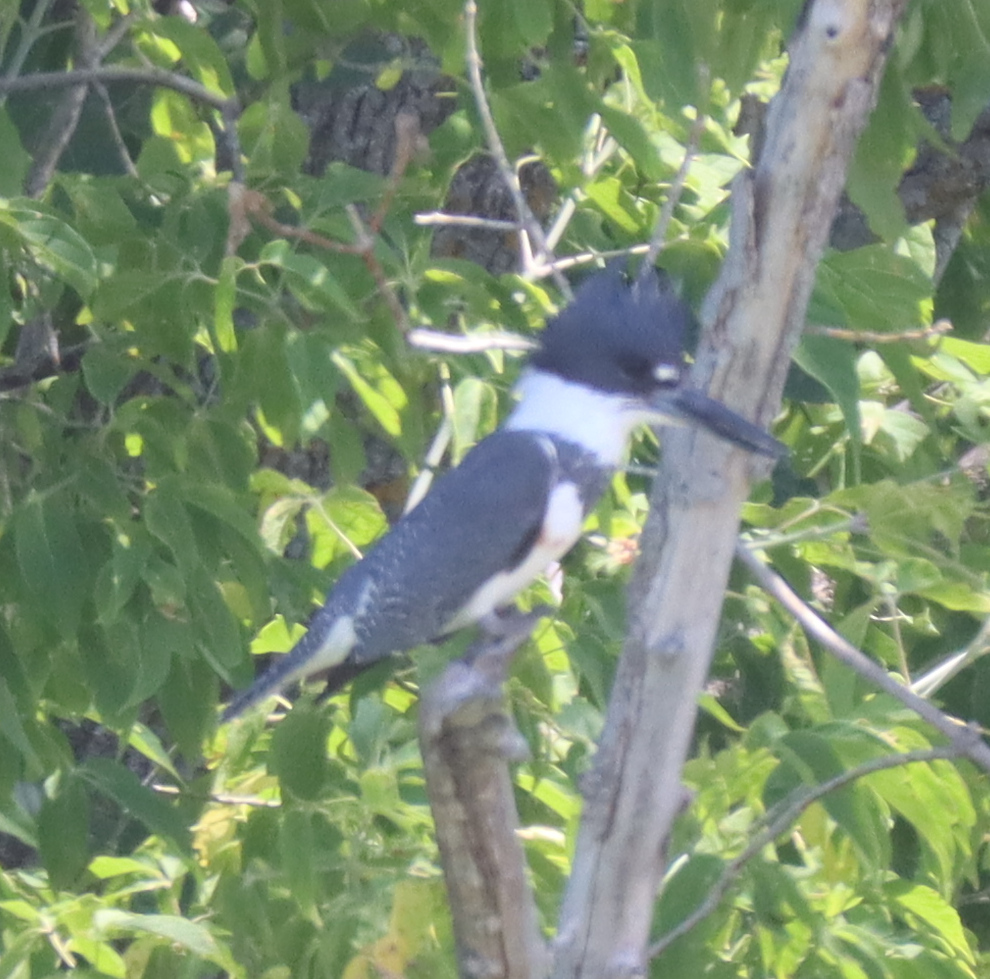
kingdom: Animalia
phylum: Chordata
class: Aves
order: Coraciiformes
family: Alcedinidae
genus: Megaceryle
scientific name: Megaceryle alcyon
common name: Belted kingfisher
